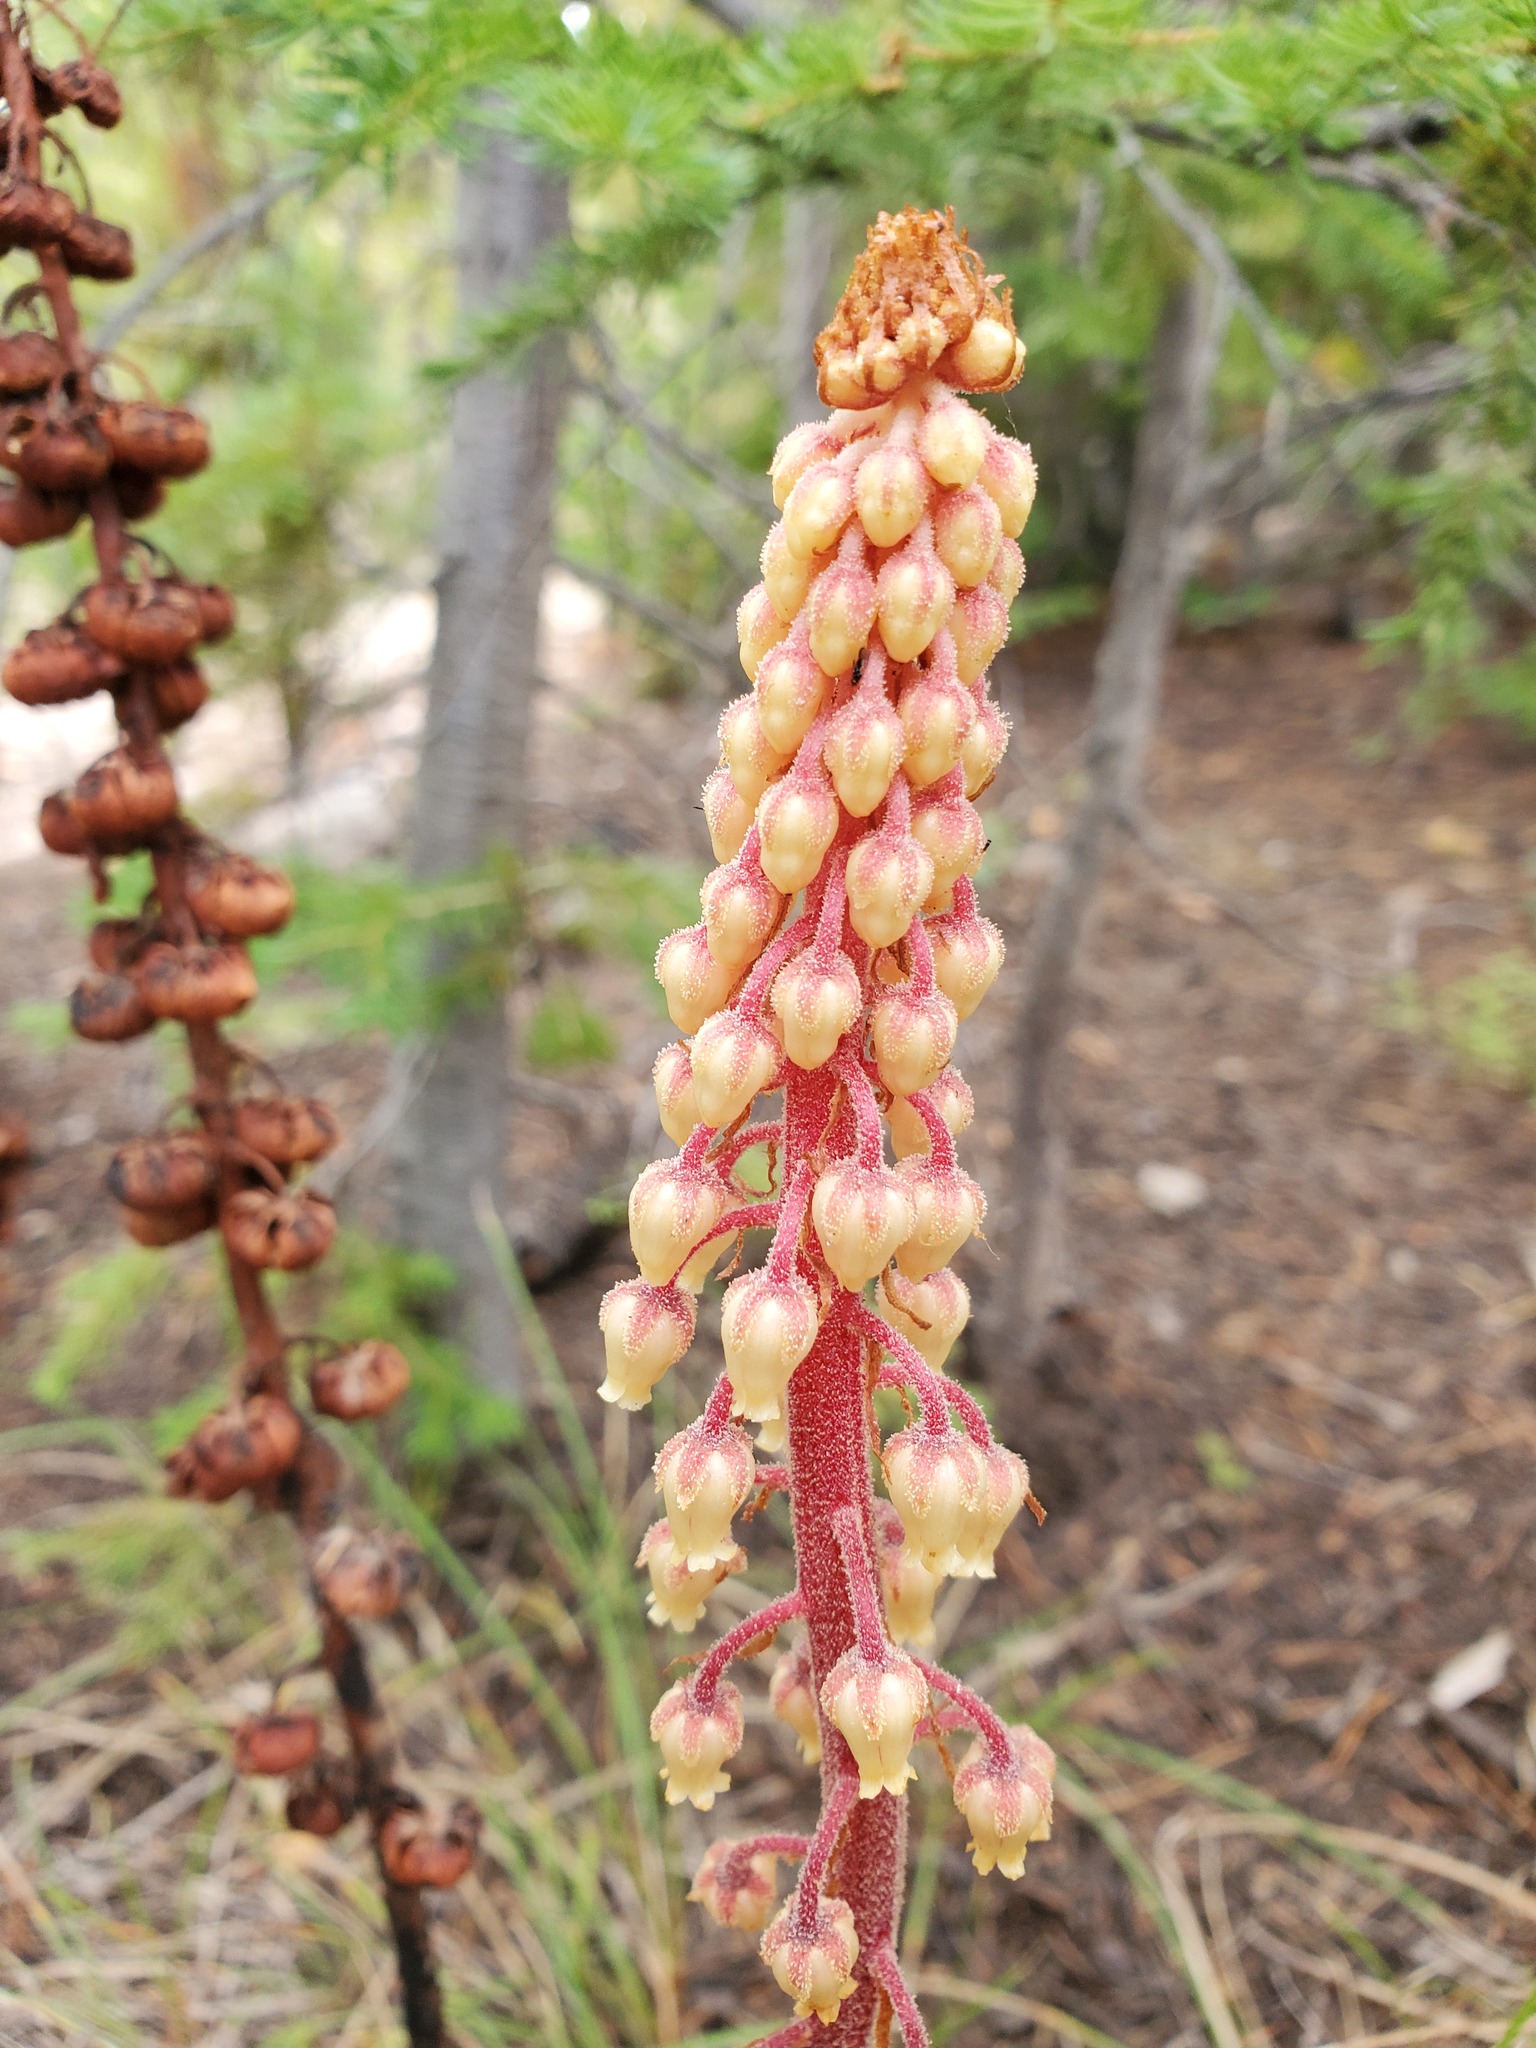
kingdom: Plantae
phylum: Tracheophyta
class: Magnoliopsida
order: Ericales
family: Ericaceae
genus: Pterospora
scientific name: Pterospora andromedea
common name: Giant bird's-nest
